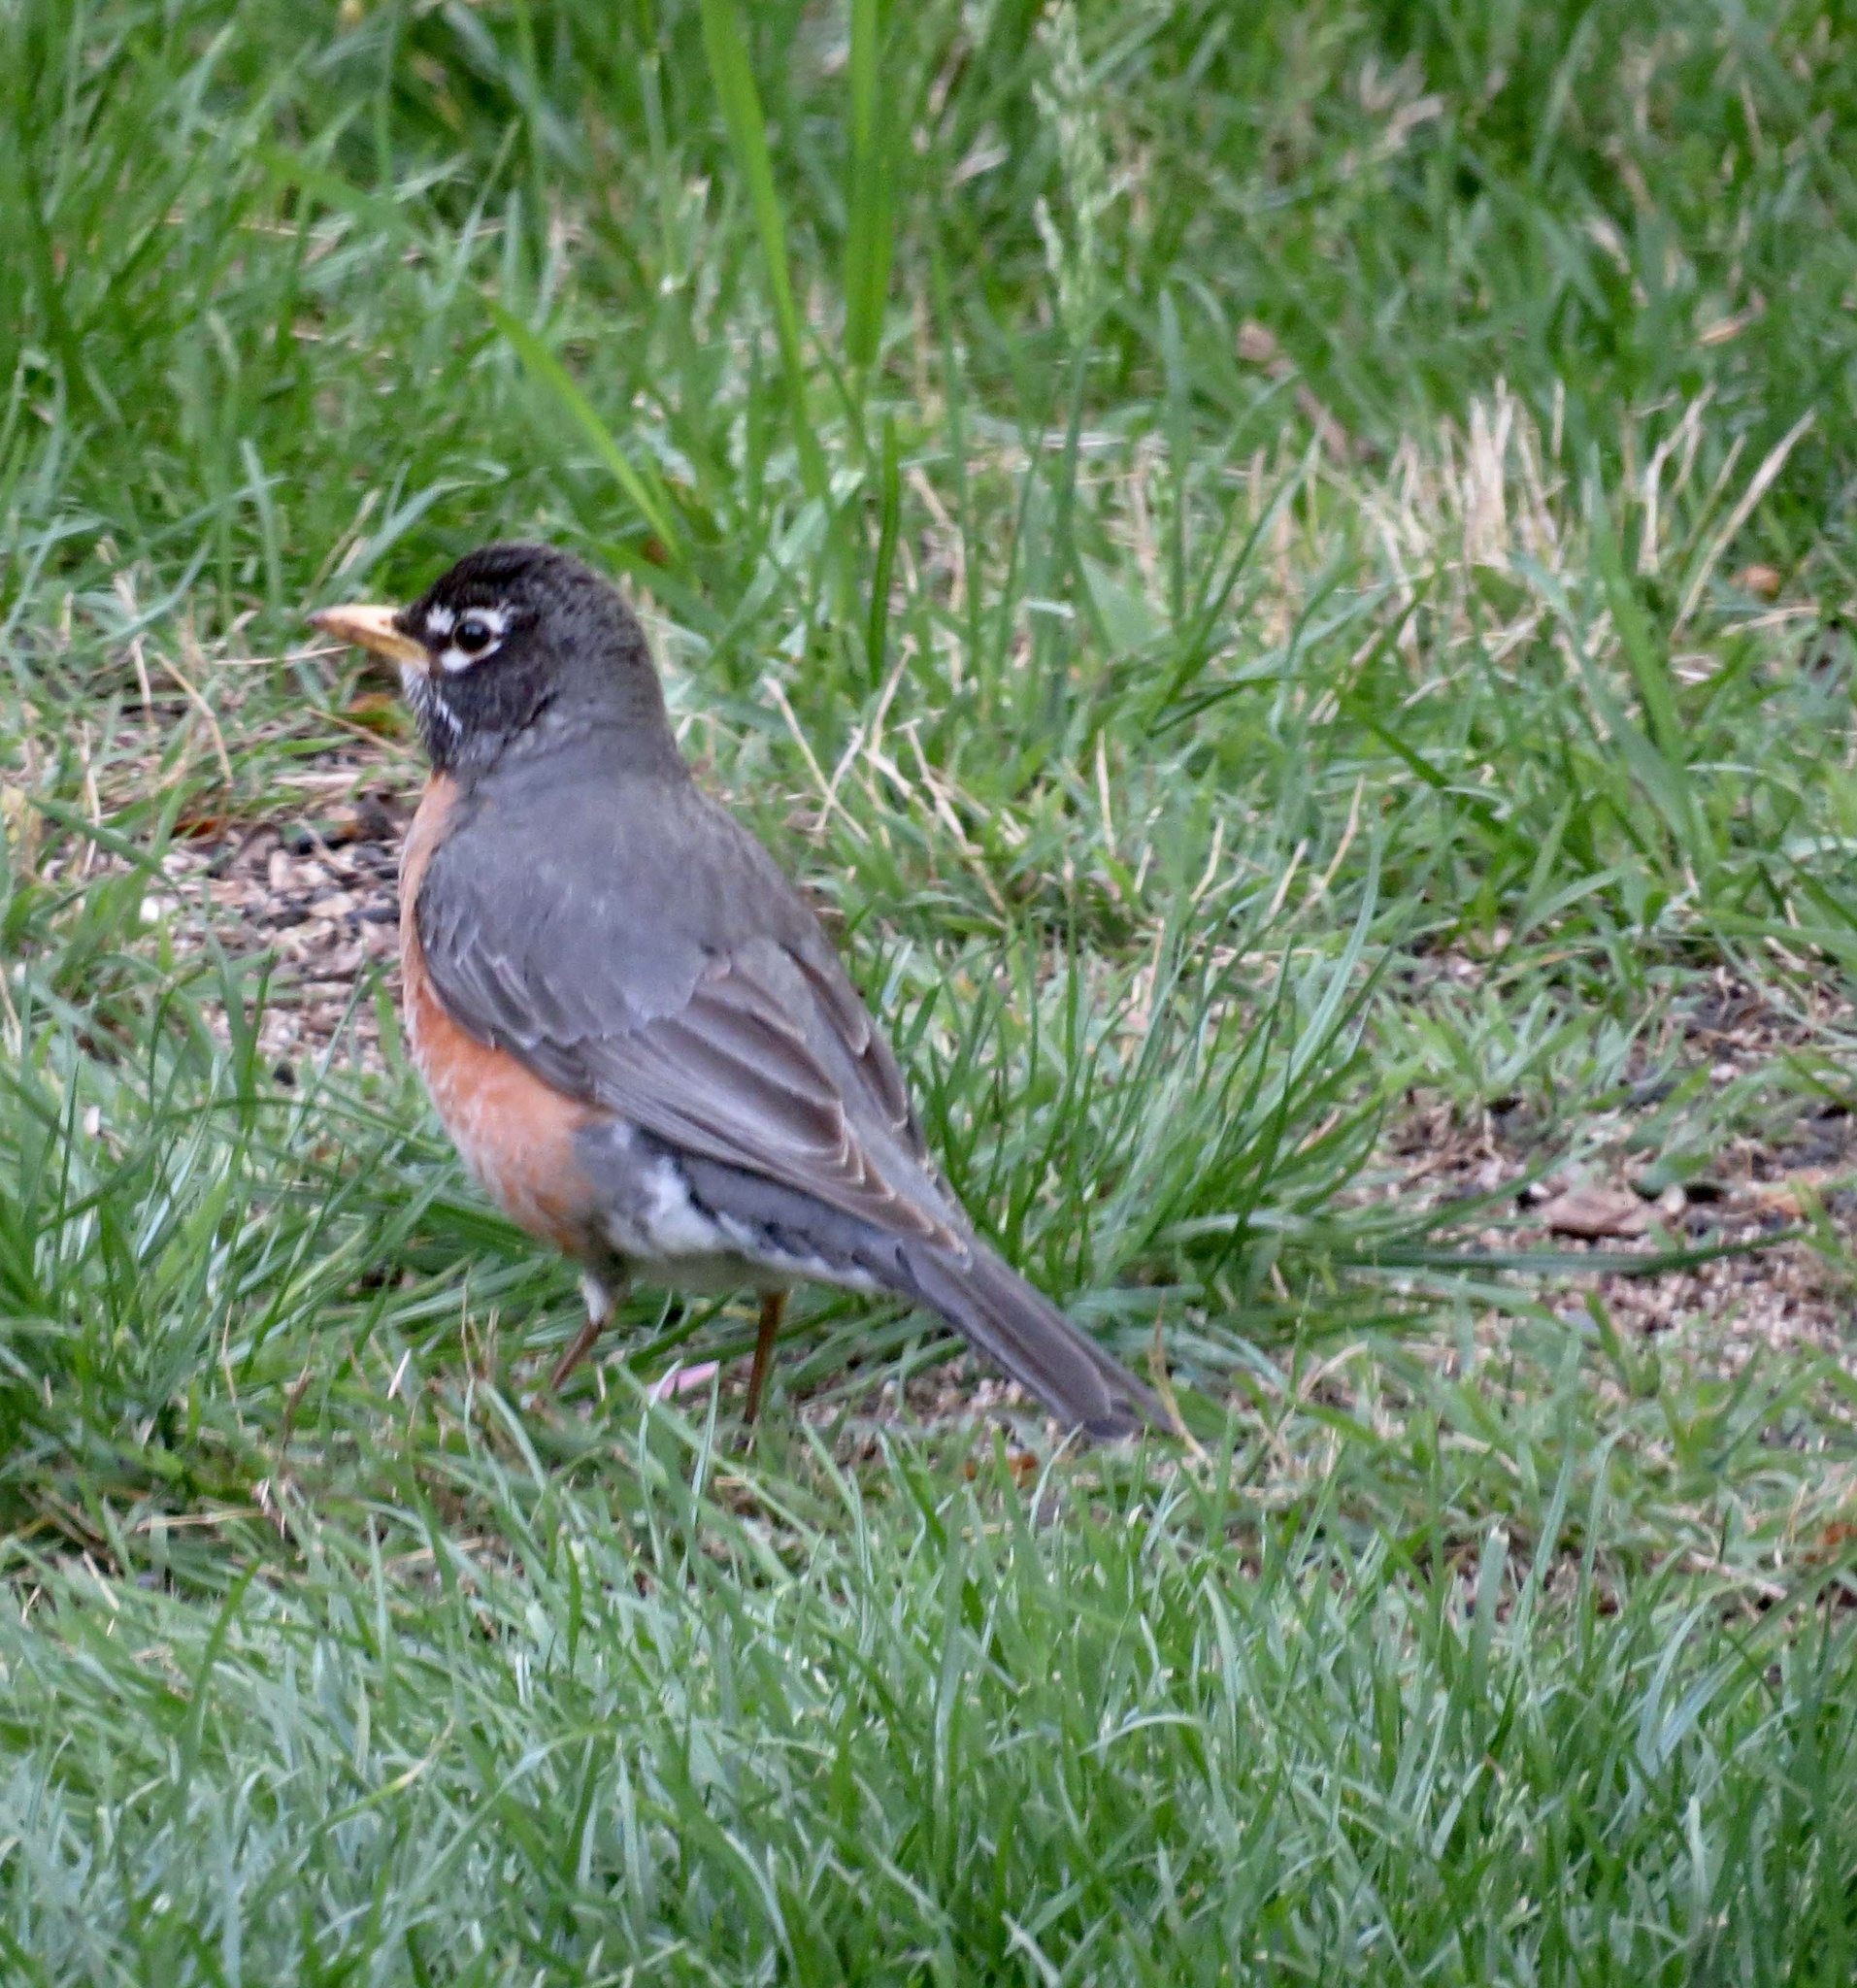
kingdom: Animalia
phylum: Chordata
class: Aves
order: Passeriformes
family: Turdidae
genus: Turdus
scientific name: Turdus migratorius
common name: American robin
